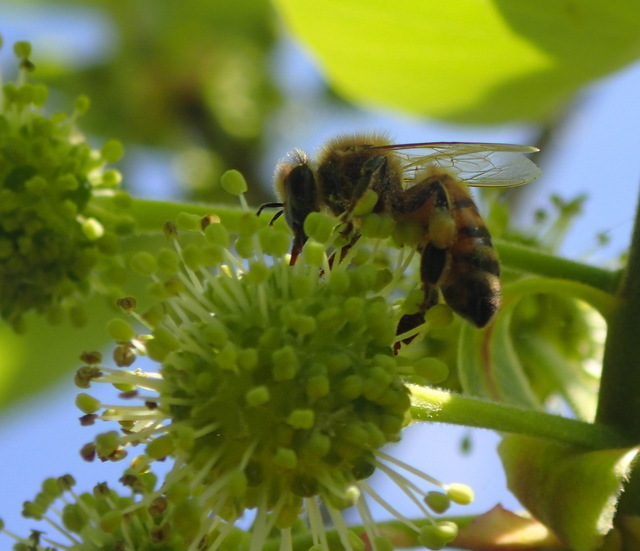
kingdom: Animalia
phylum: Arthropoda
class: Insecta
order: Hymenoptera
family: Apidae
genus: Apis
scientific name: Apis mellifera
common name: Honey bee
